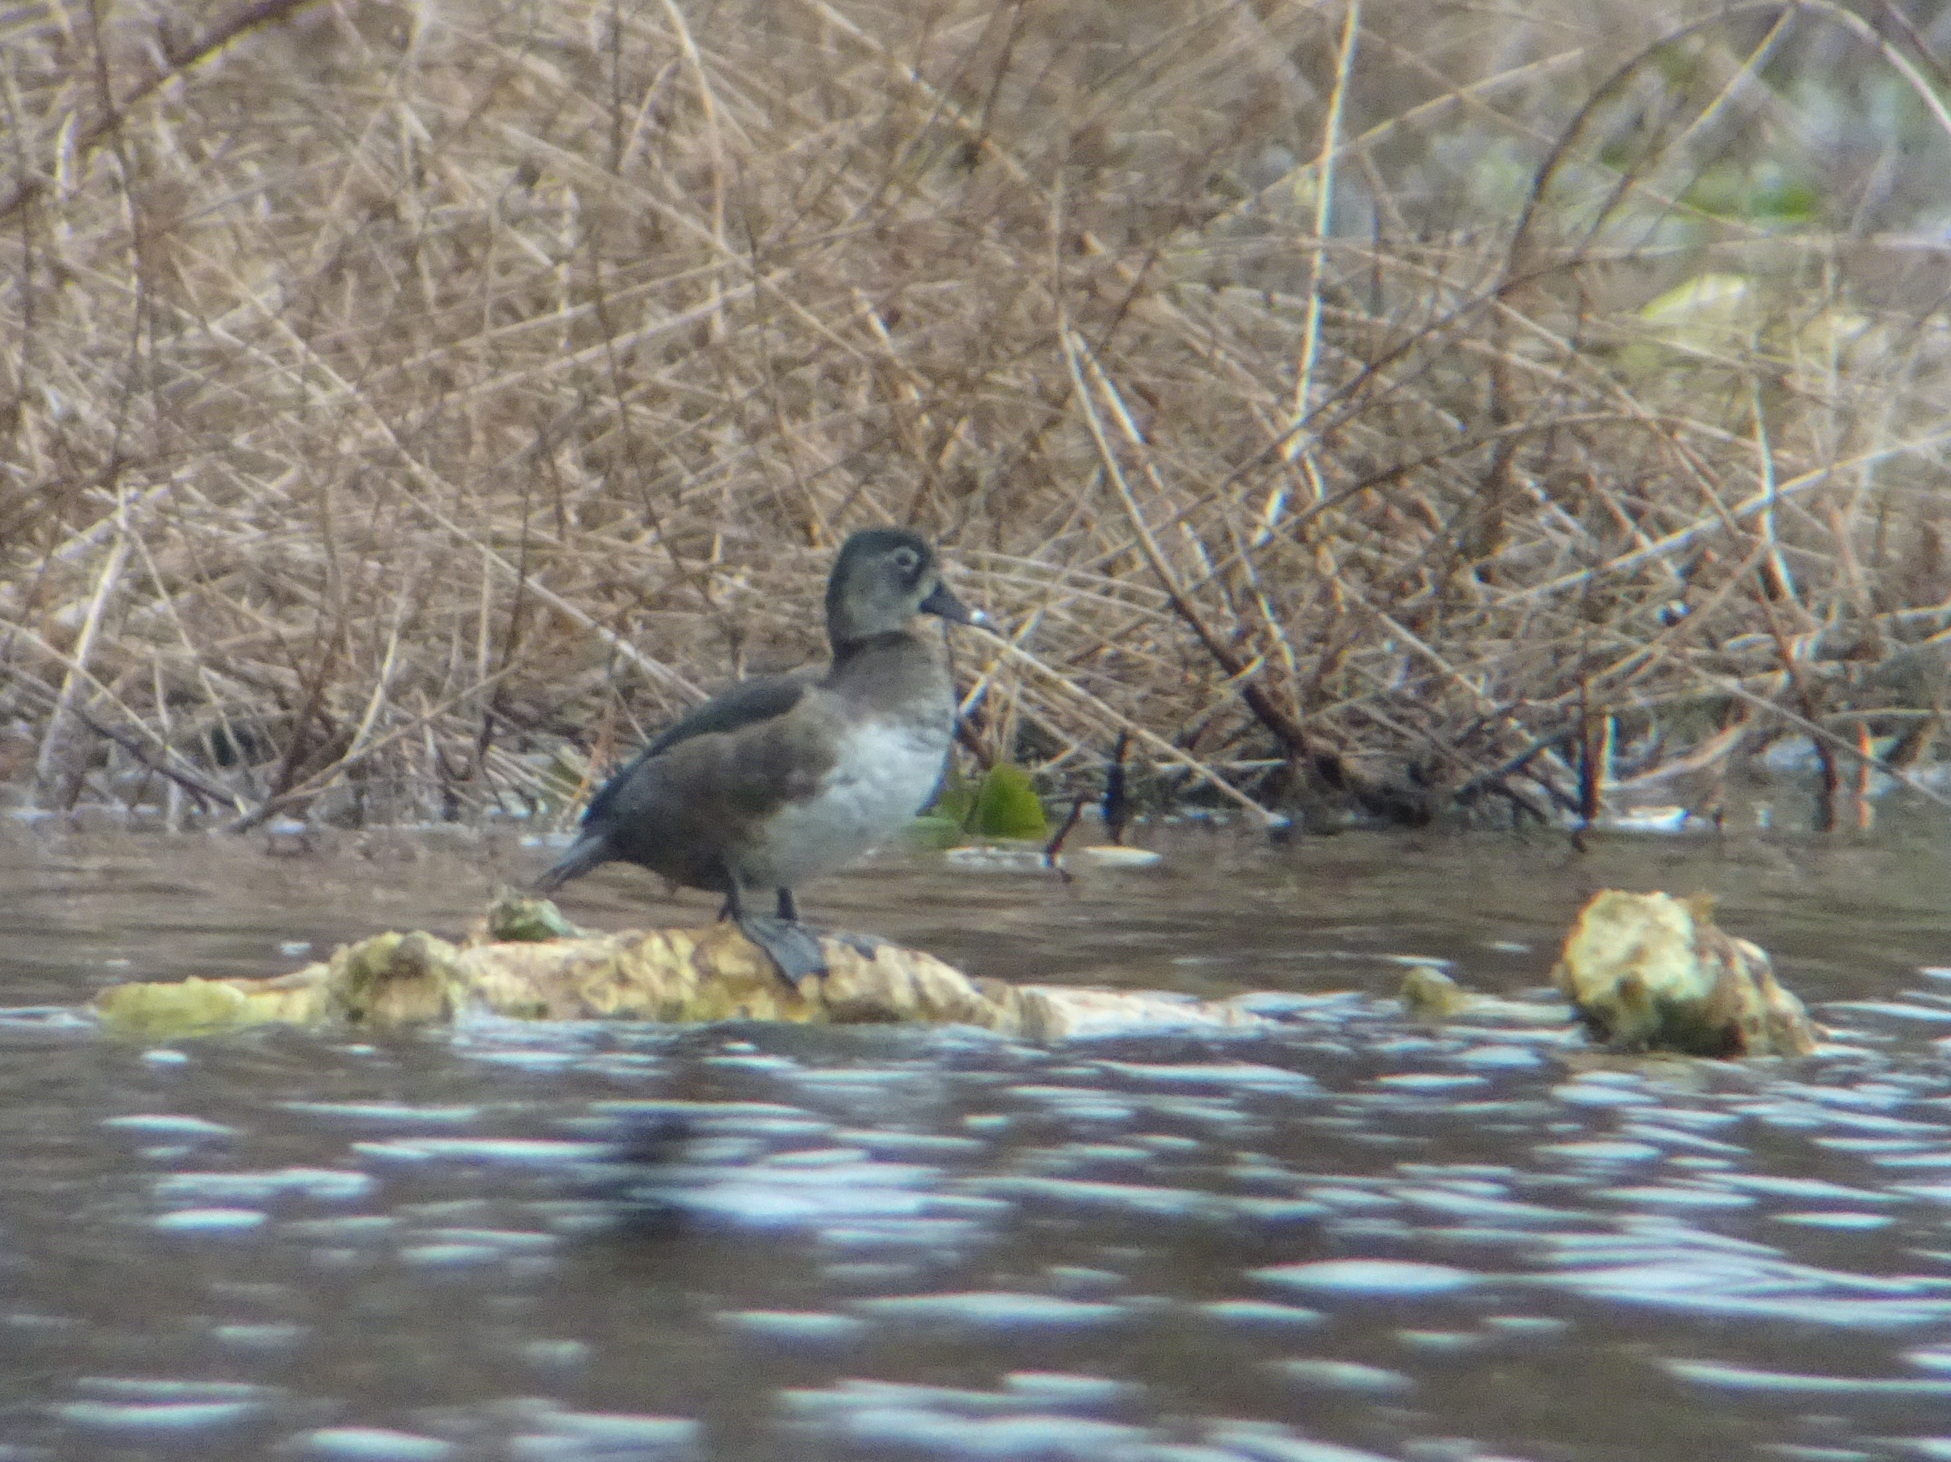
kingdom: Animalia
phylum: Chordata
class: Aves
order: Anseriformes
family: Anatidae
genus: Aythya
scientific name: Aythya collaris
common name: Ring-necked duck
